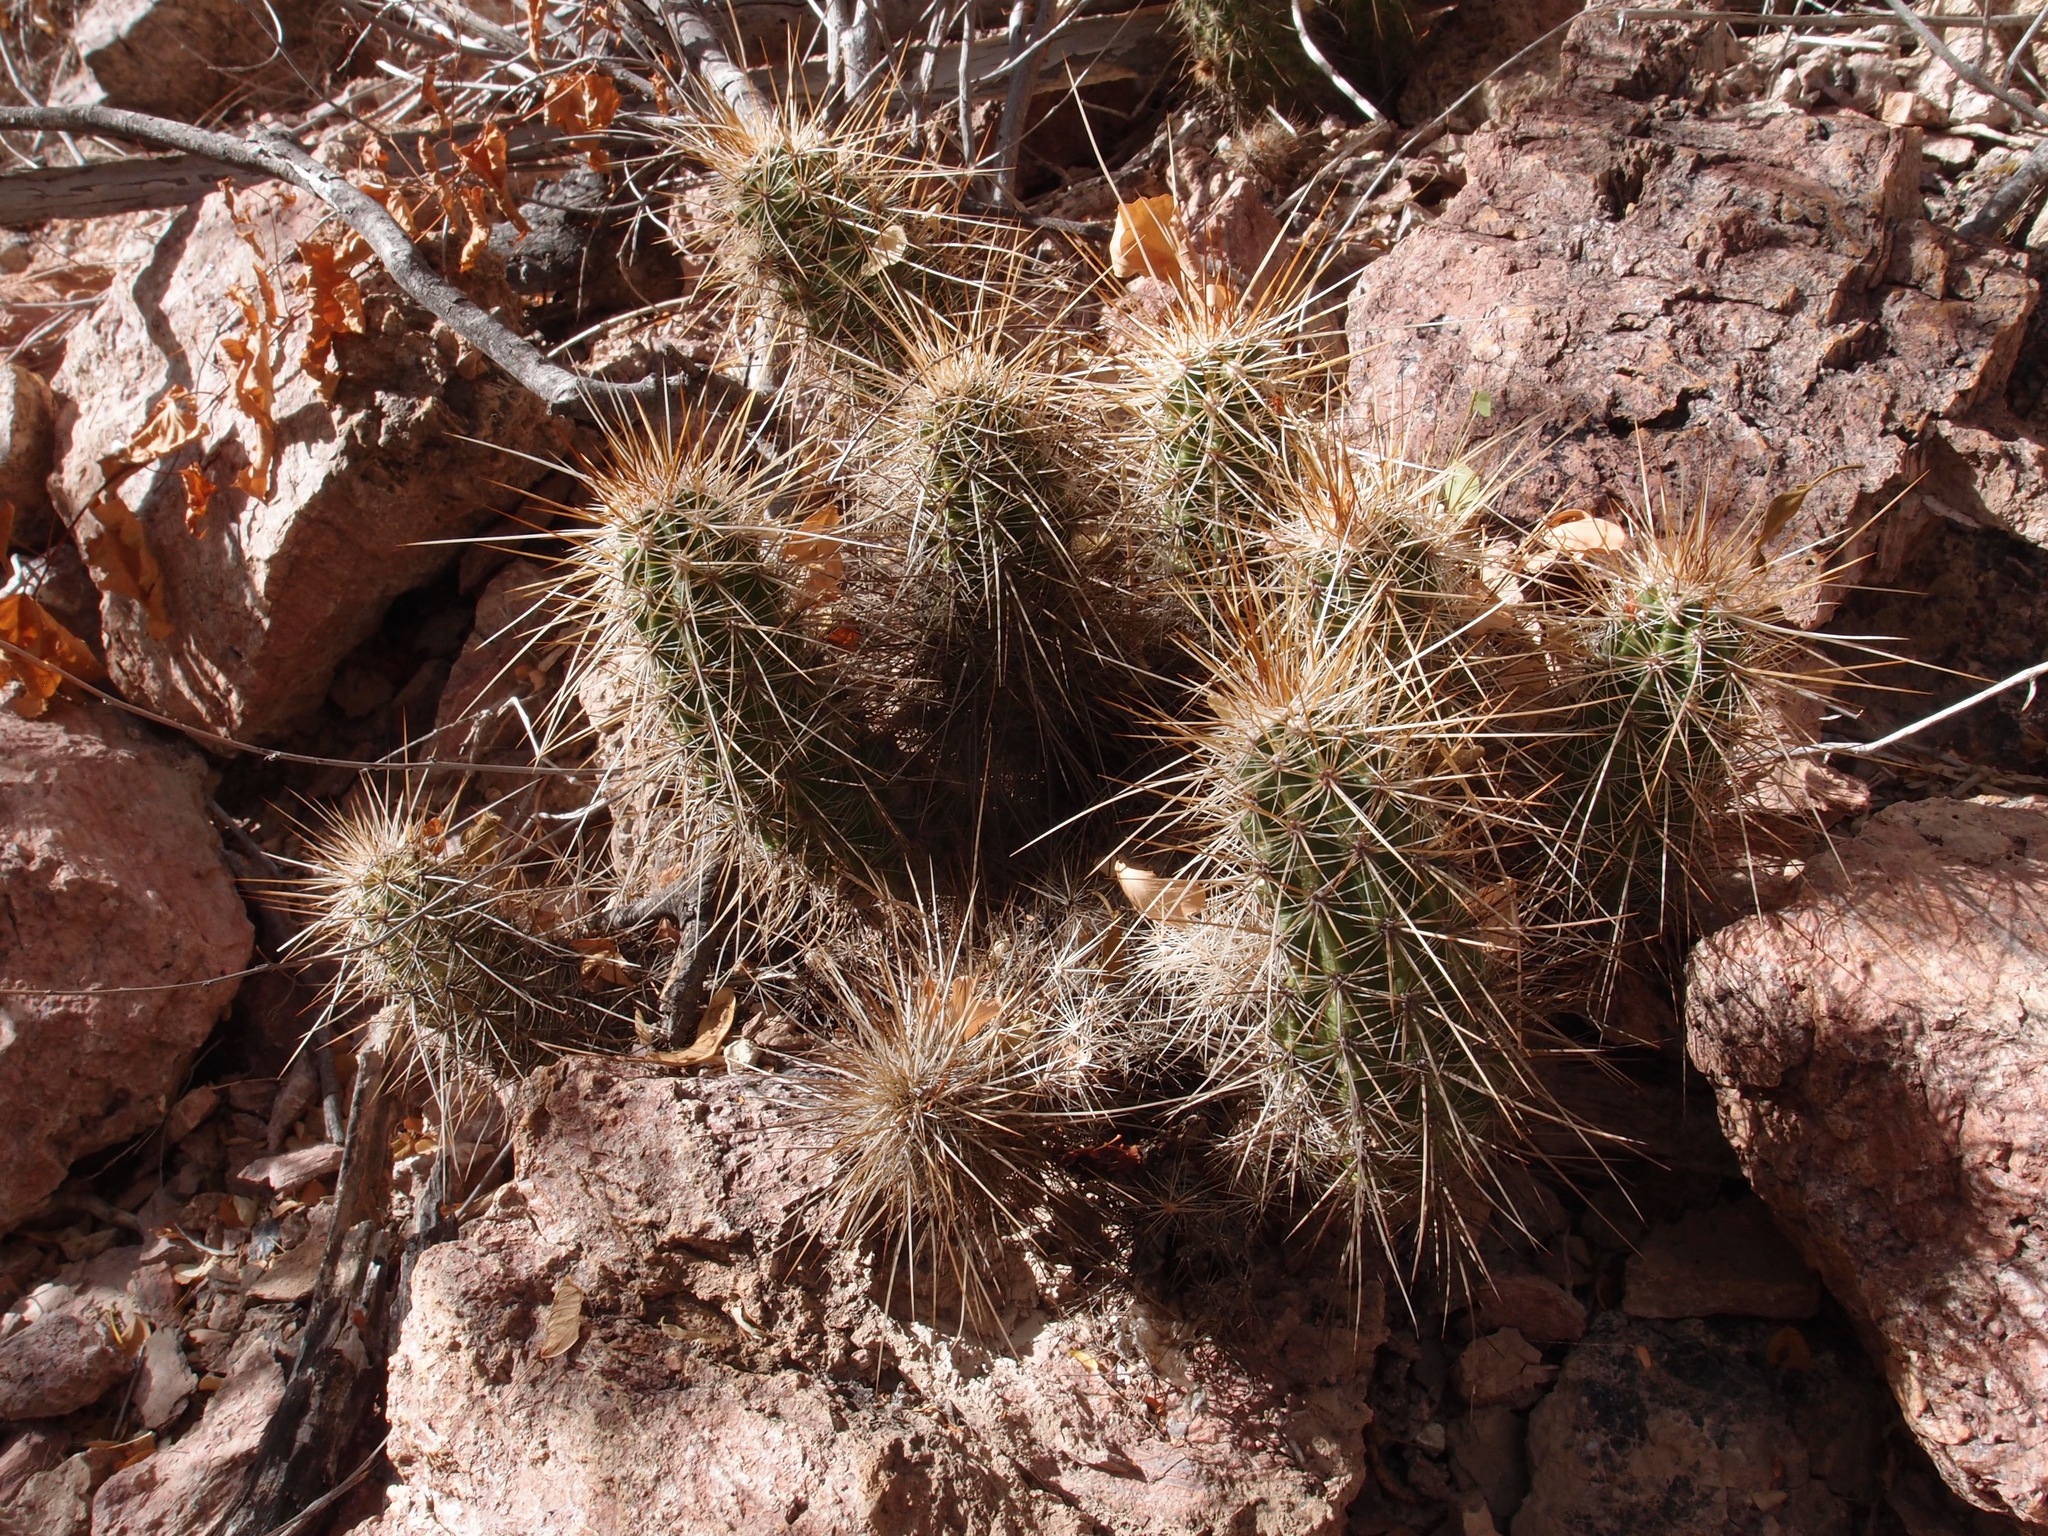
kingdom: Plantae
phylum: Tracheophyta
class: Magnoliopsida
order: Caryophyllales
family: Cactaceae
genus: Echinocereus
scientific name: Echinocereus llanurensis
